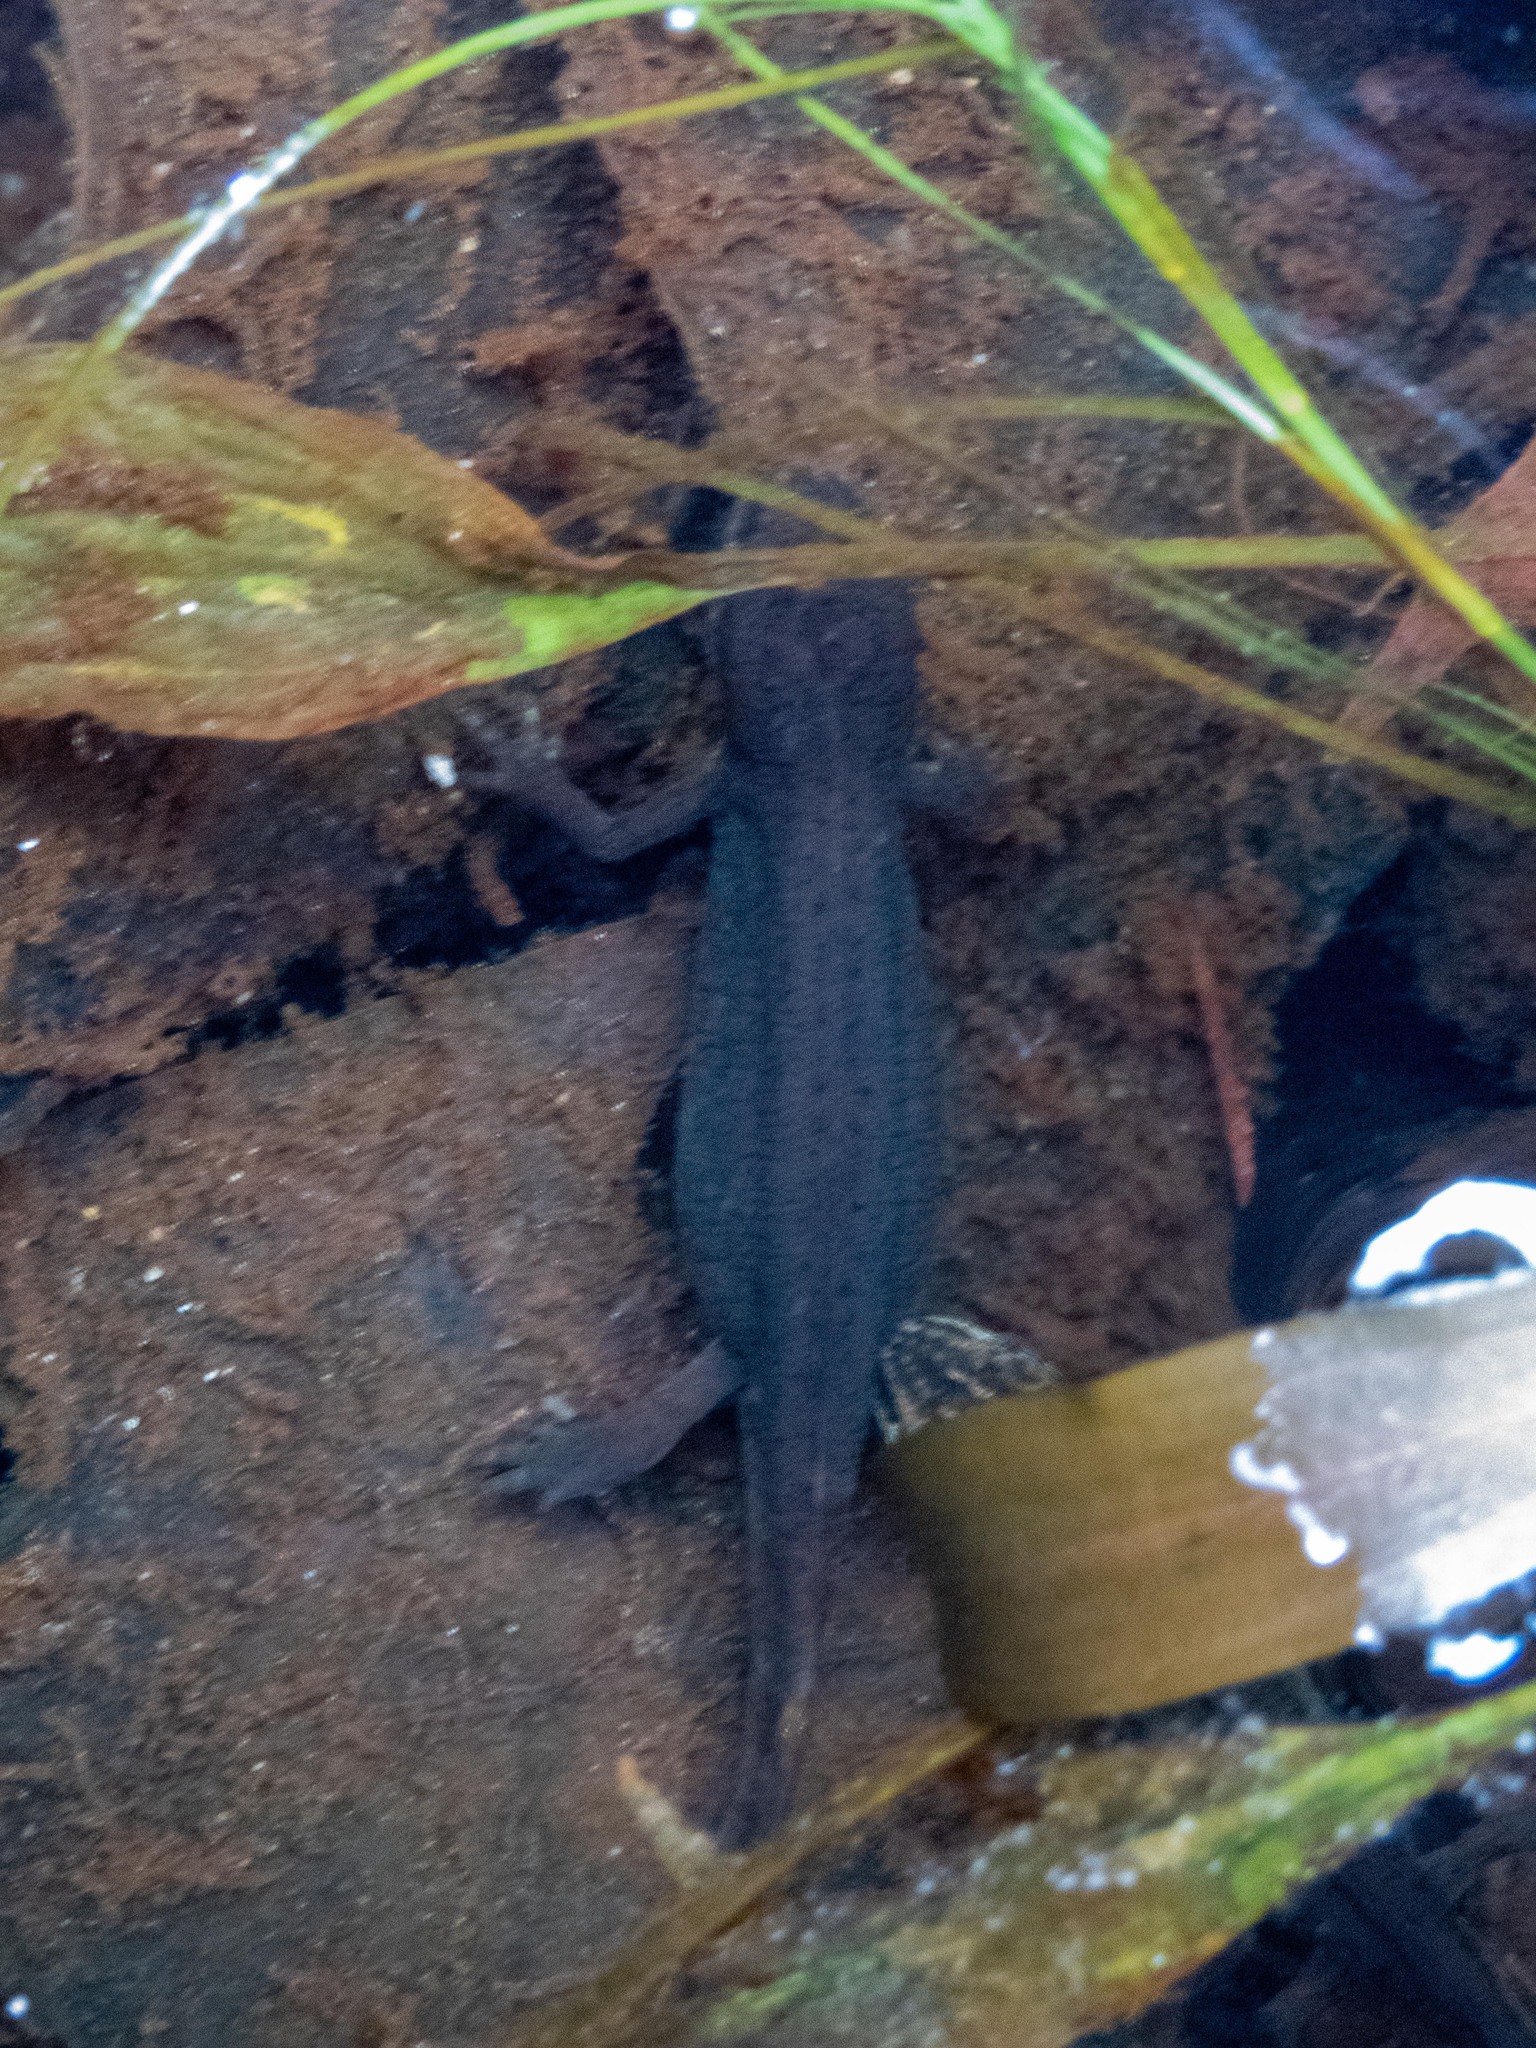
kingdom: Animalia
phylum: Chordata
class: Amphibia
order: Caudata
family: Salamandridae
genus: Lissotriton
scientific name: Lissotriton helveticus
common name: Palmate newt
